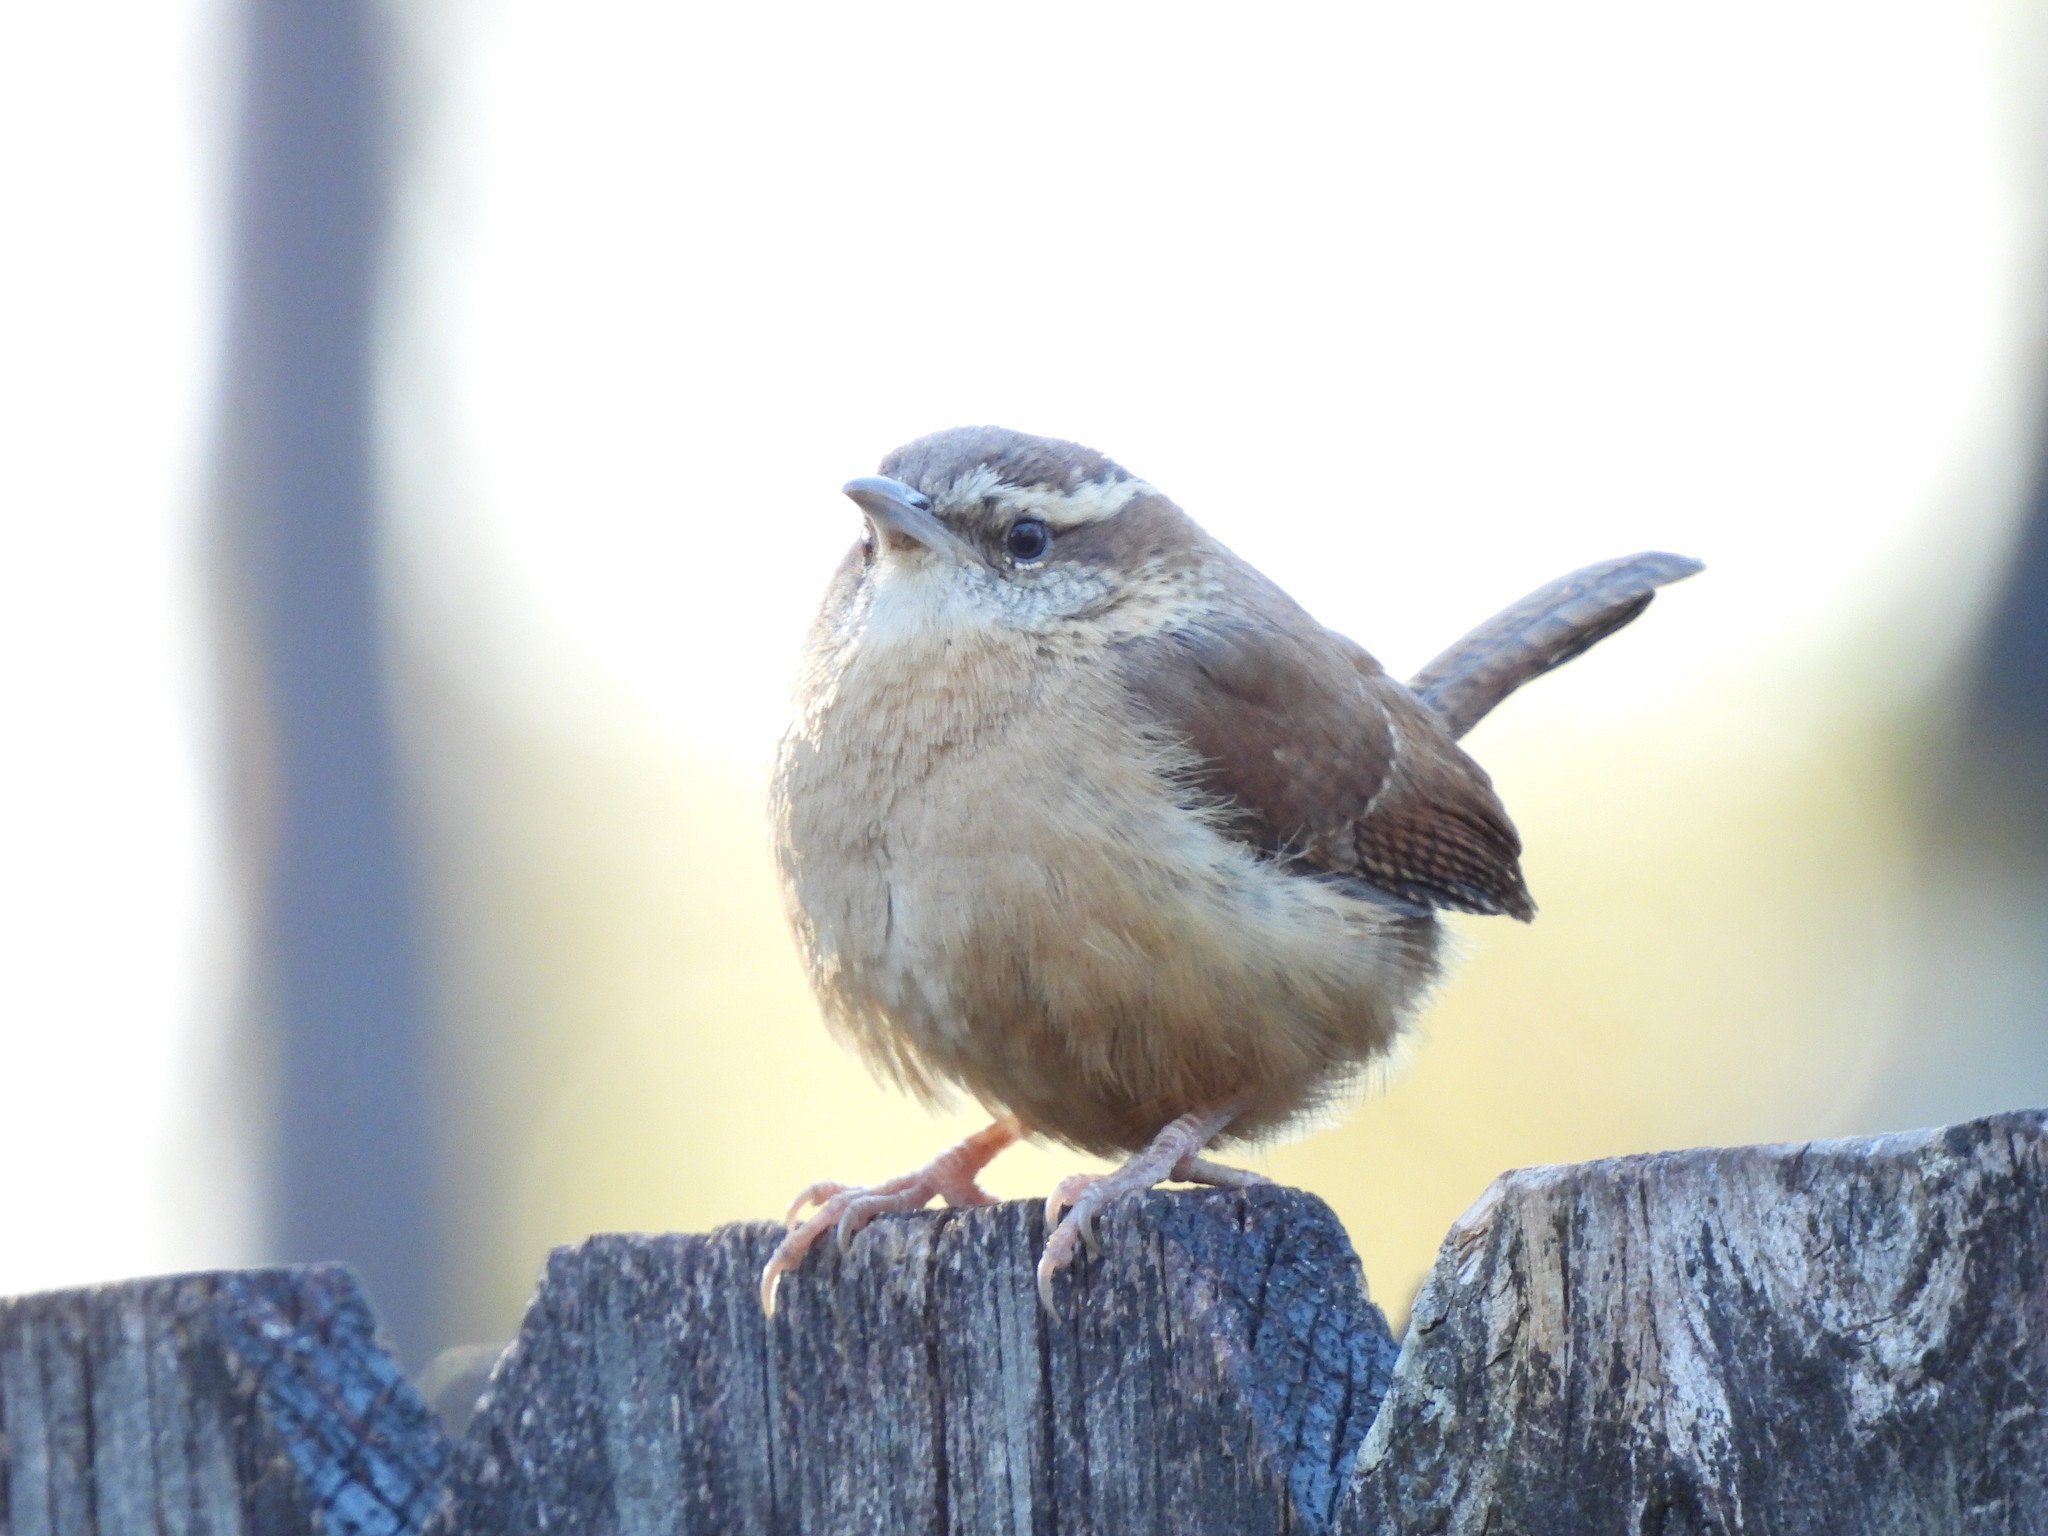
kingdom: Animalia
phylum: Chordata
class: Aves
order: Passeriformes
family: Troglodytidae
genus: Thryothorus
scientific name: Thryothorus ludovicianus
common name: Carolina wren
